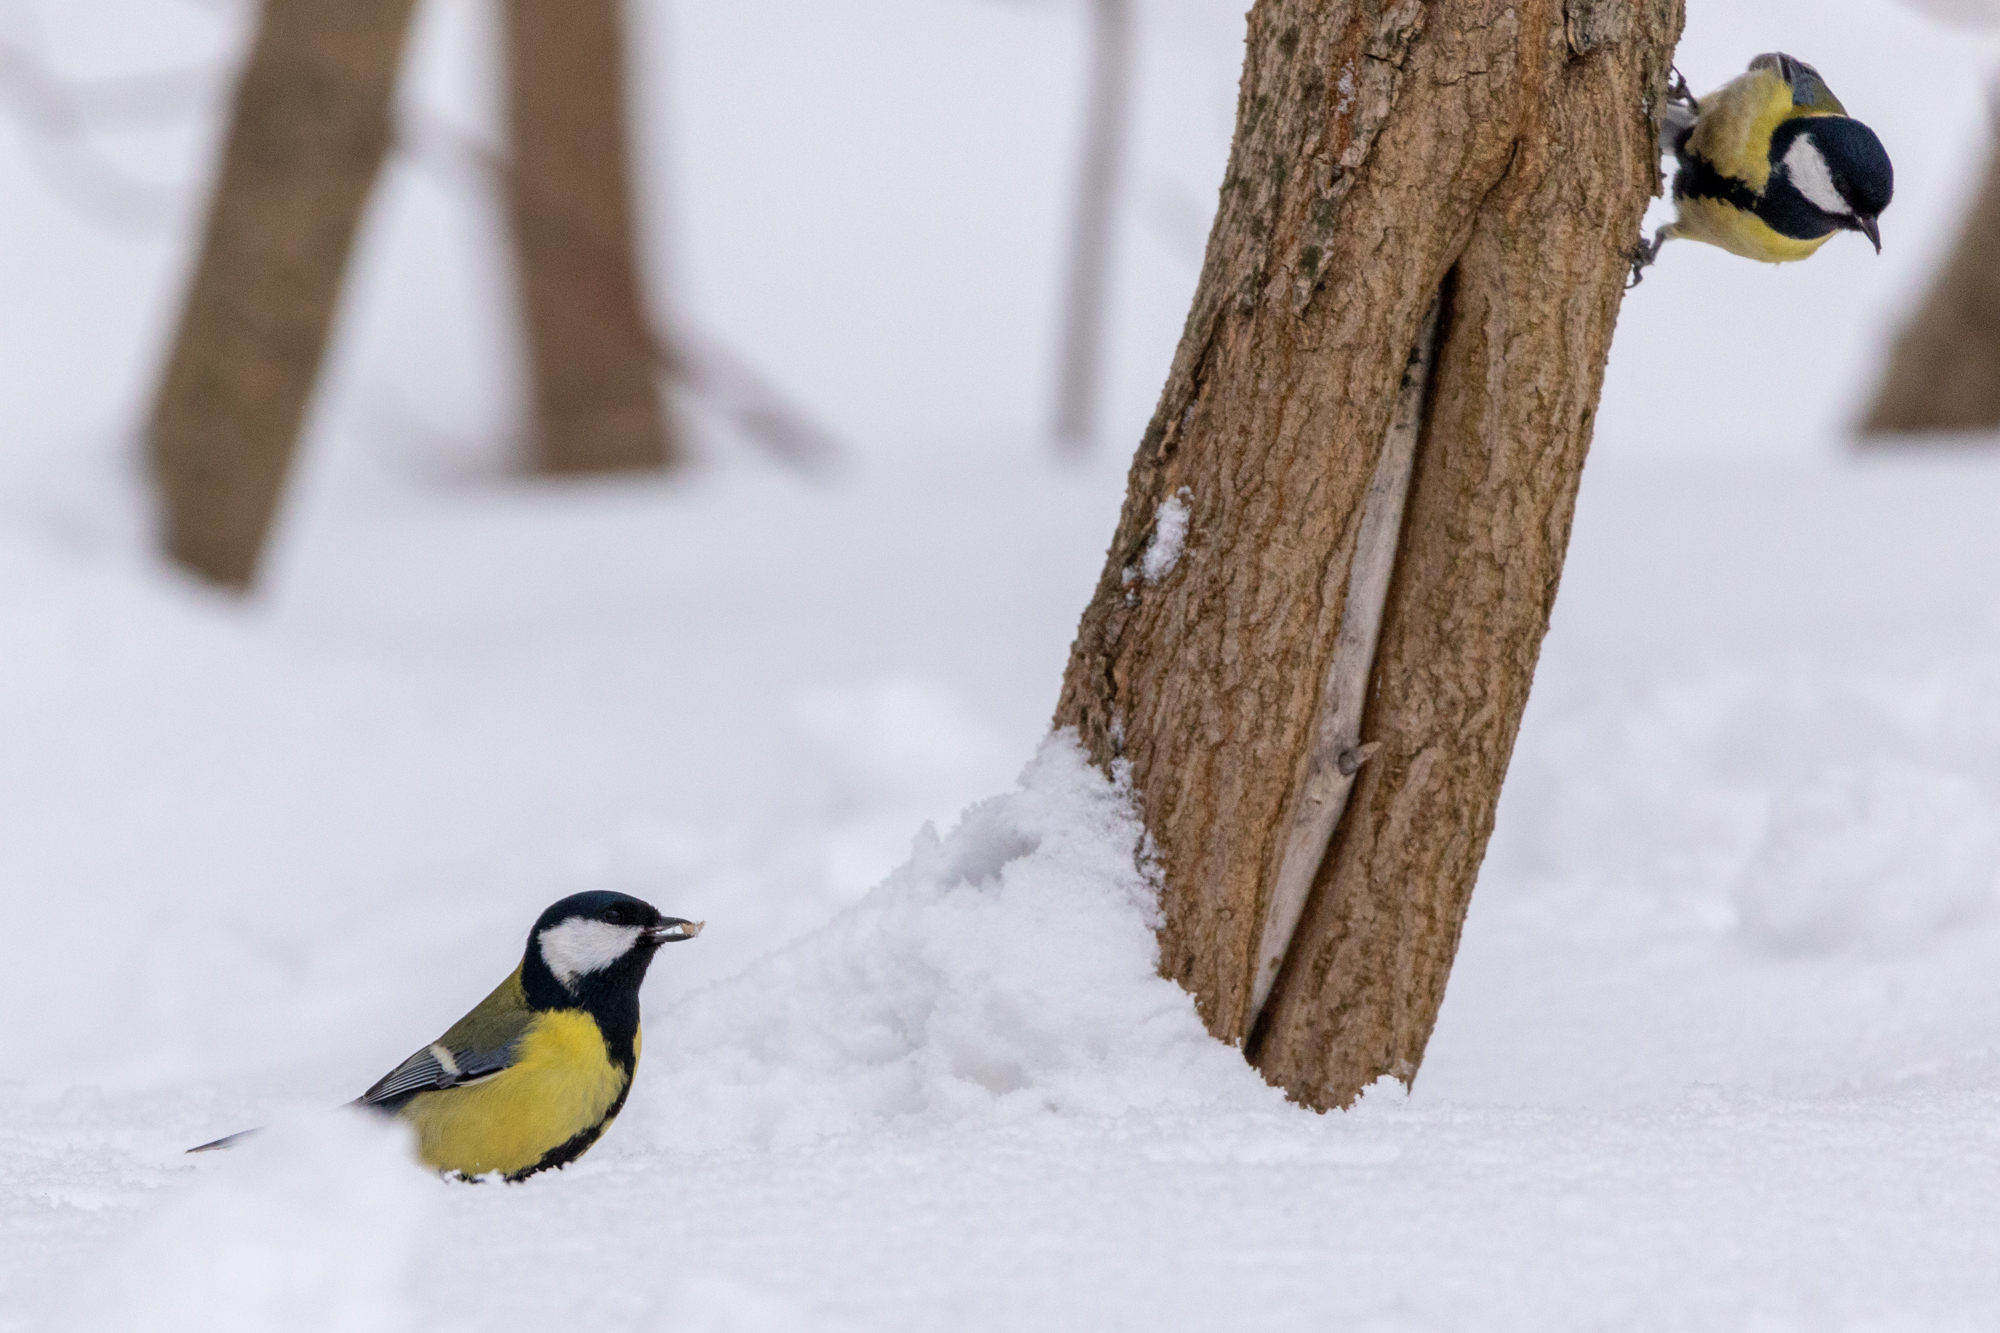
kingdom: Animalia
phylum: Chordata
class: Aves
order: Passeriformes
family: Paridae
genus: Parus
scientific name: Parus major
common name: Great tit
